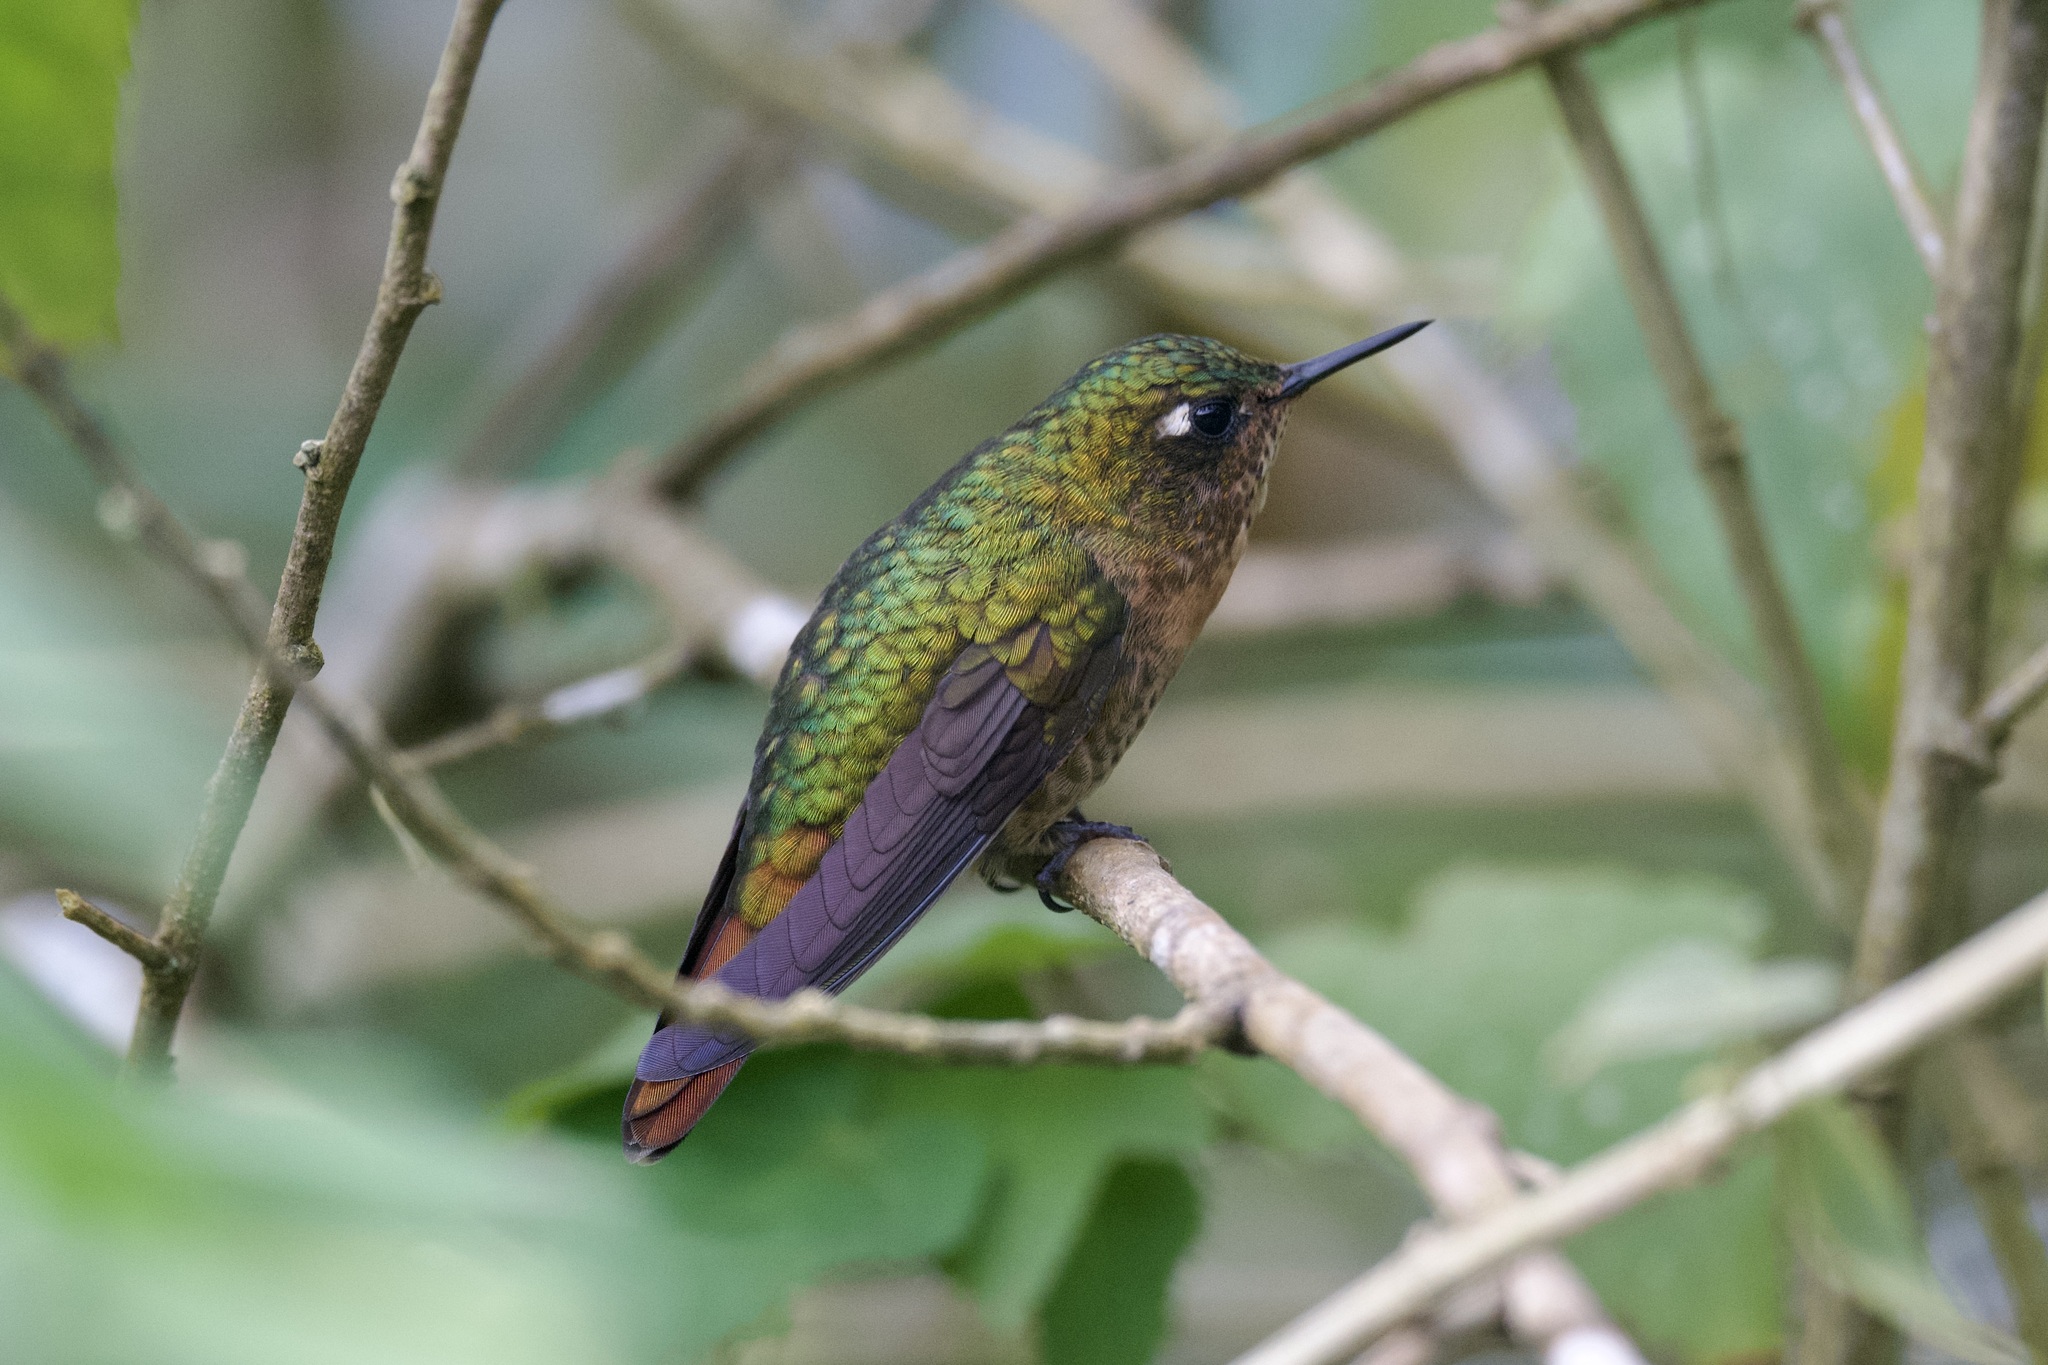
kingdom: Animalia
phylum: Chordata
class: Aves
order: Apodiformes
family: Trochilidae
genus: Metallura
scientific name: Metallura tyrianthina
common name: Tyrian metaltail
